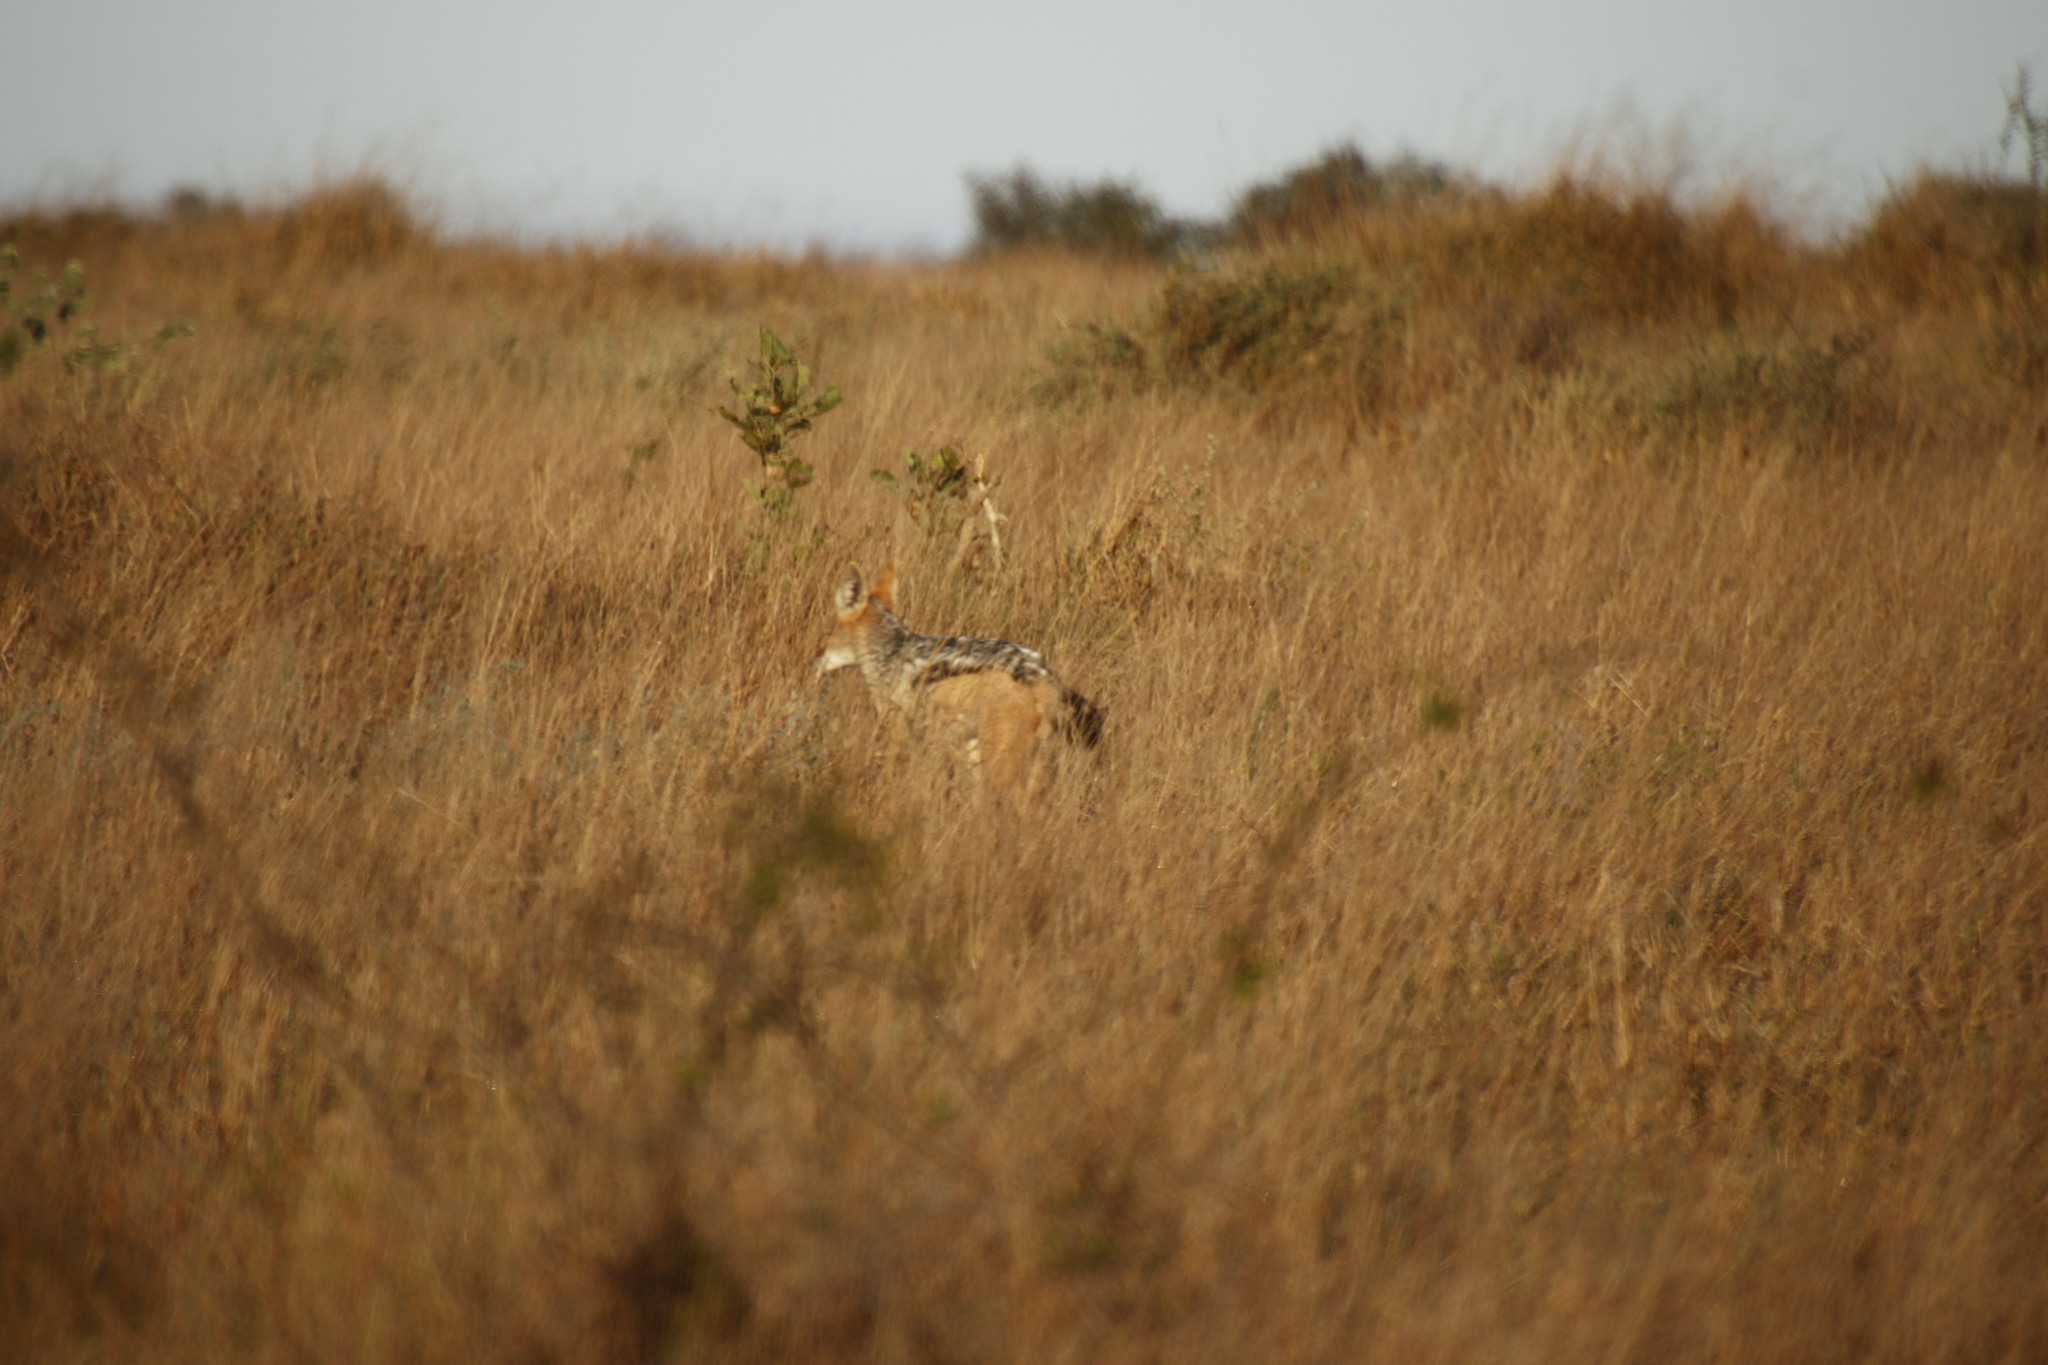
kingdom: Animalia
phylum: Chordata
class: Mammalia
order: Carnivora
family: Canidae
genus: Lupulella
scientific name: Lupulella
